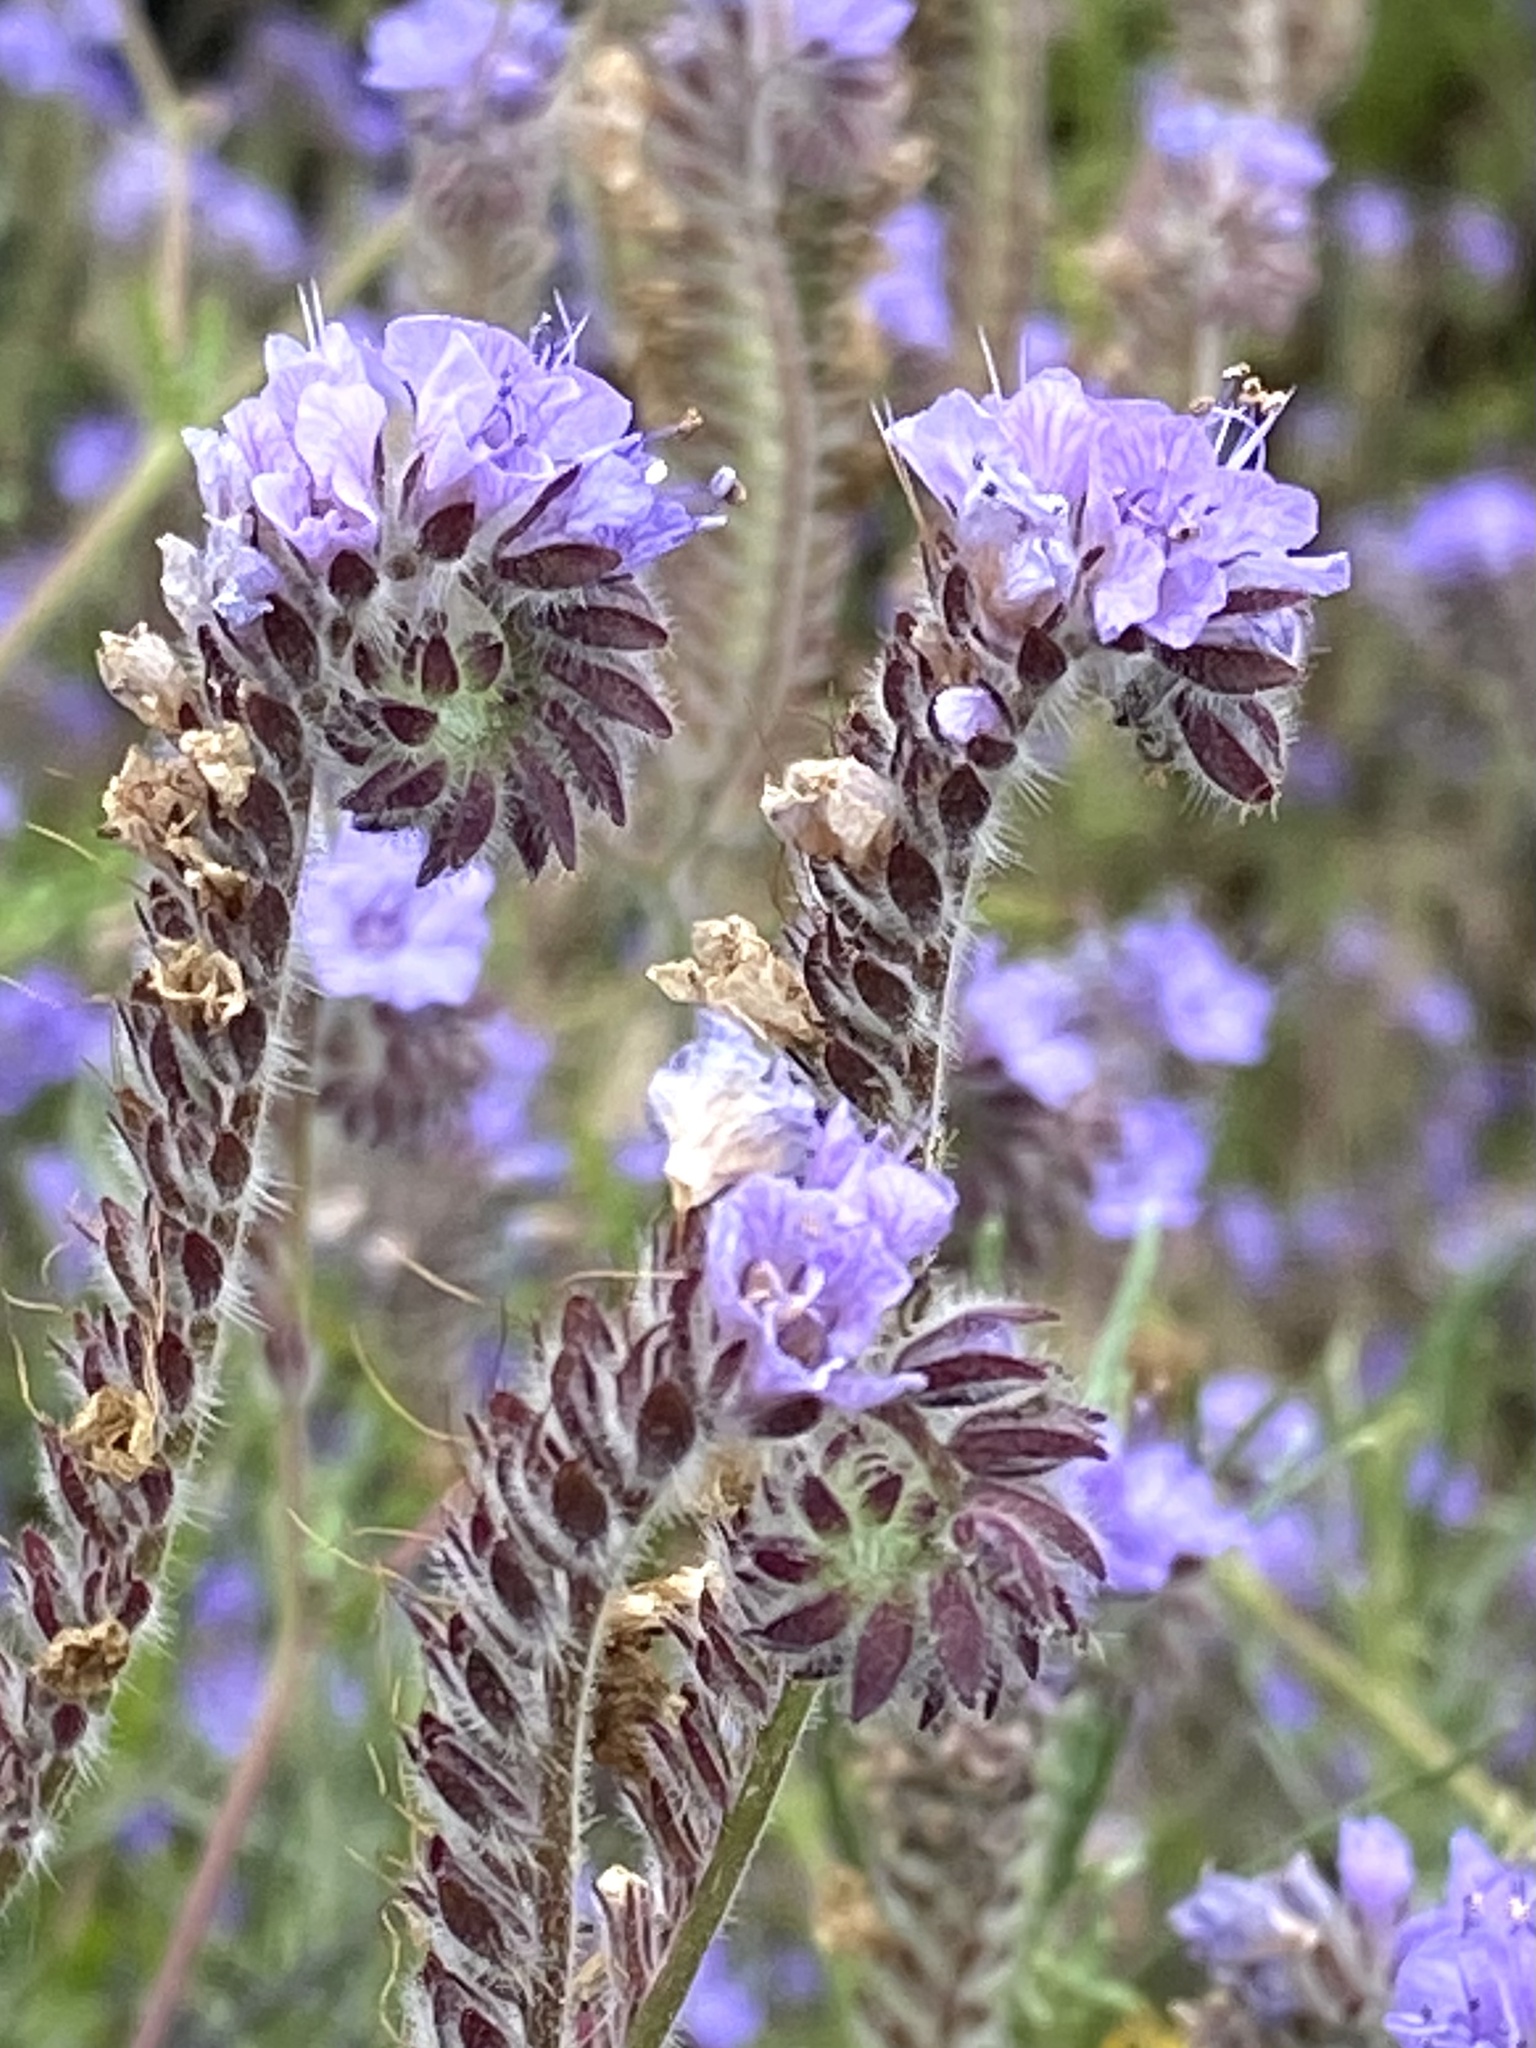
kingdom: Plantae
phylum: Tracheophyta
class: Magnoliopsida
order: Boraginales
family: Hydrophyllaceae
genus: Phacelia
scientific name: Phacelia distans
